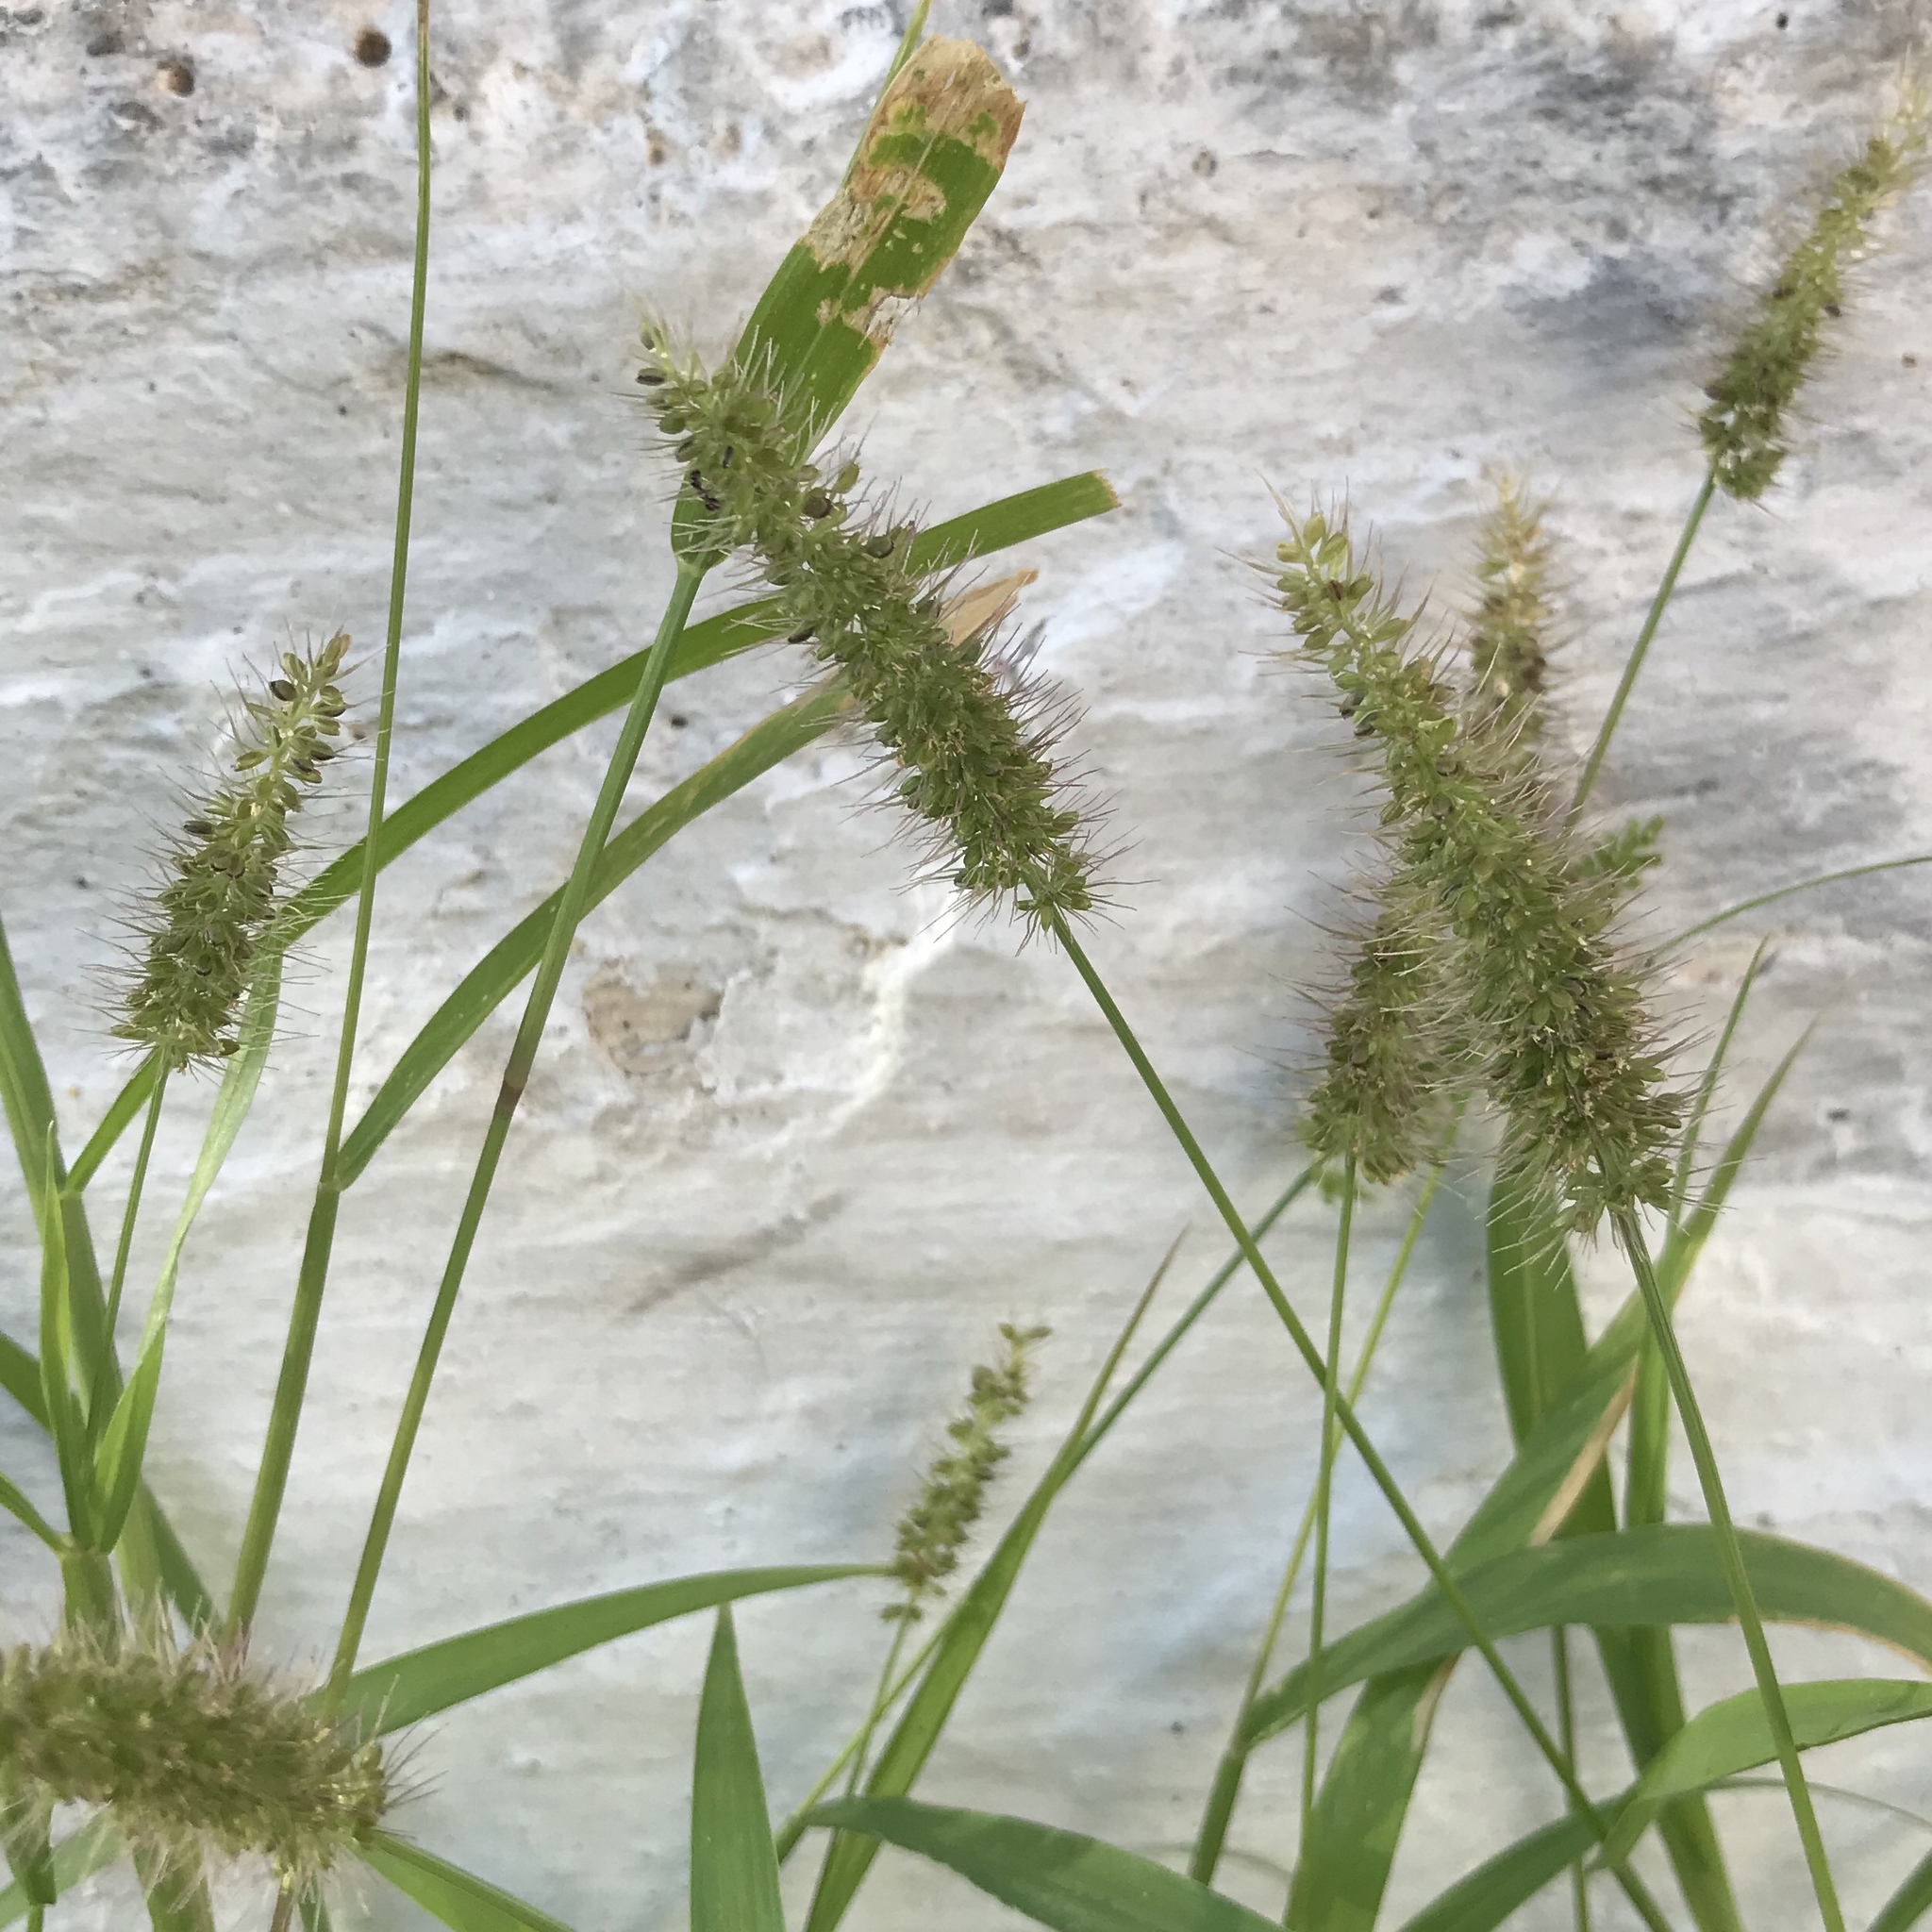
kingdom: Plantae
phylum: Tracheophyta
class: Liliopsida
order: Poales
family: Poaceae
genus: Setaria
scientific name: Setaria adhaerens
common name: Adherent bristle-grass
